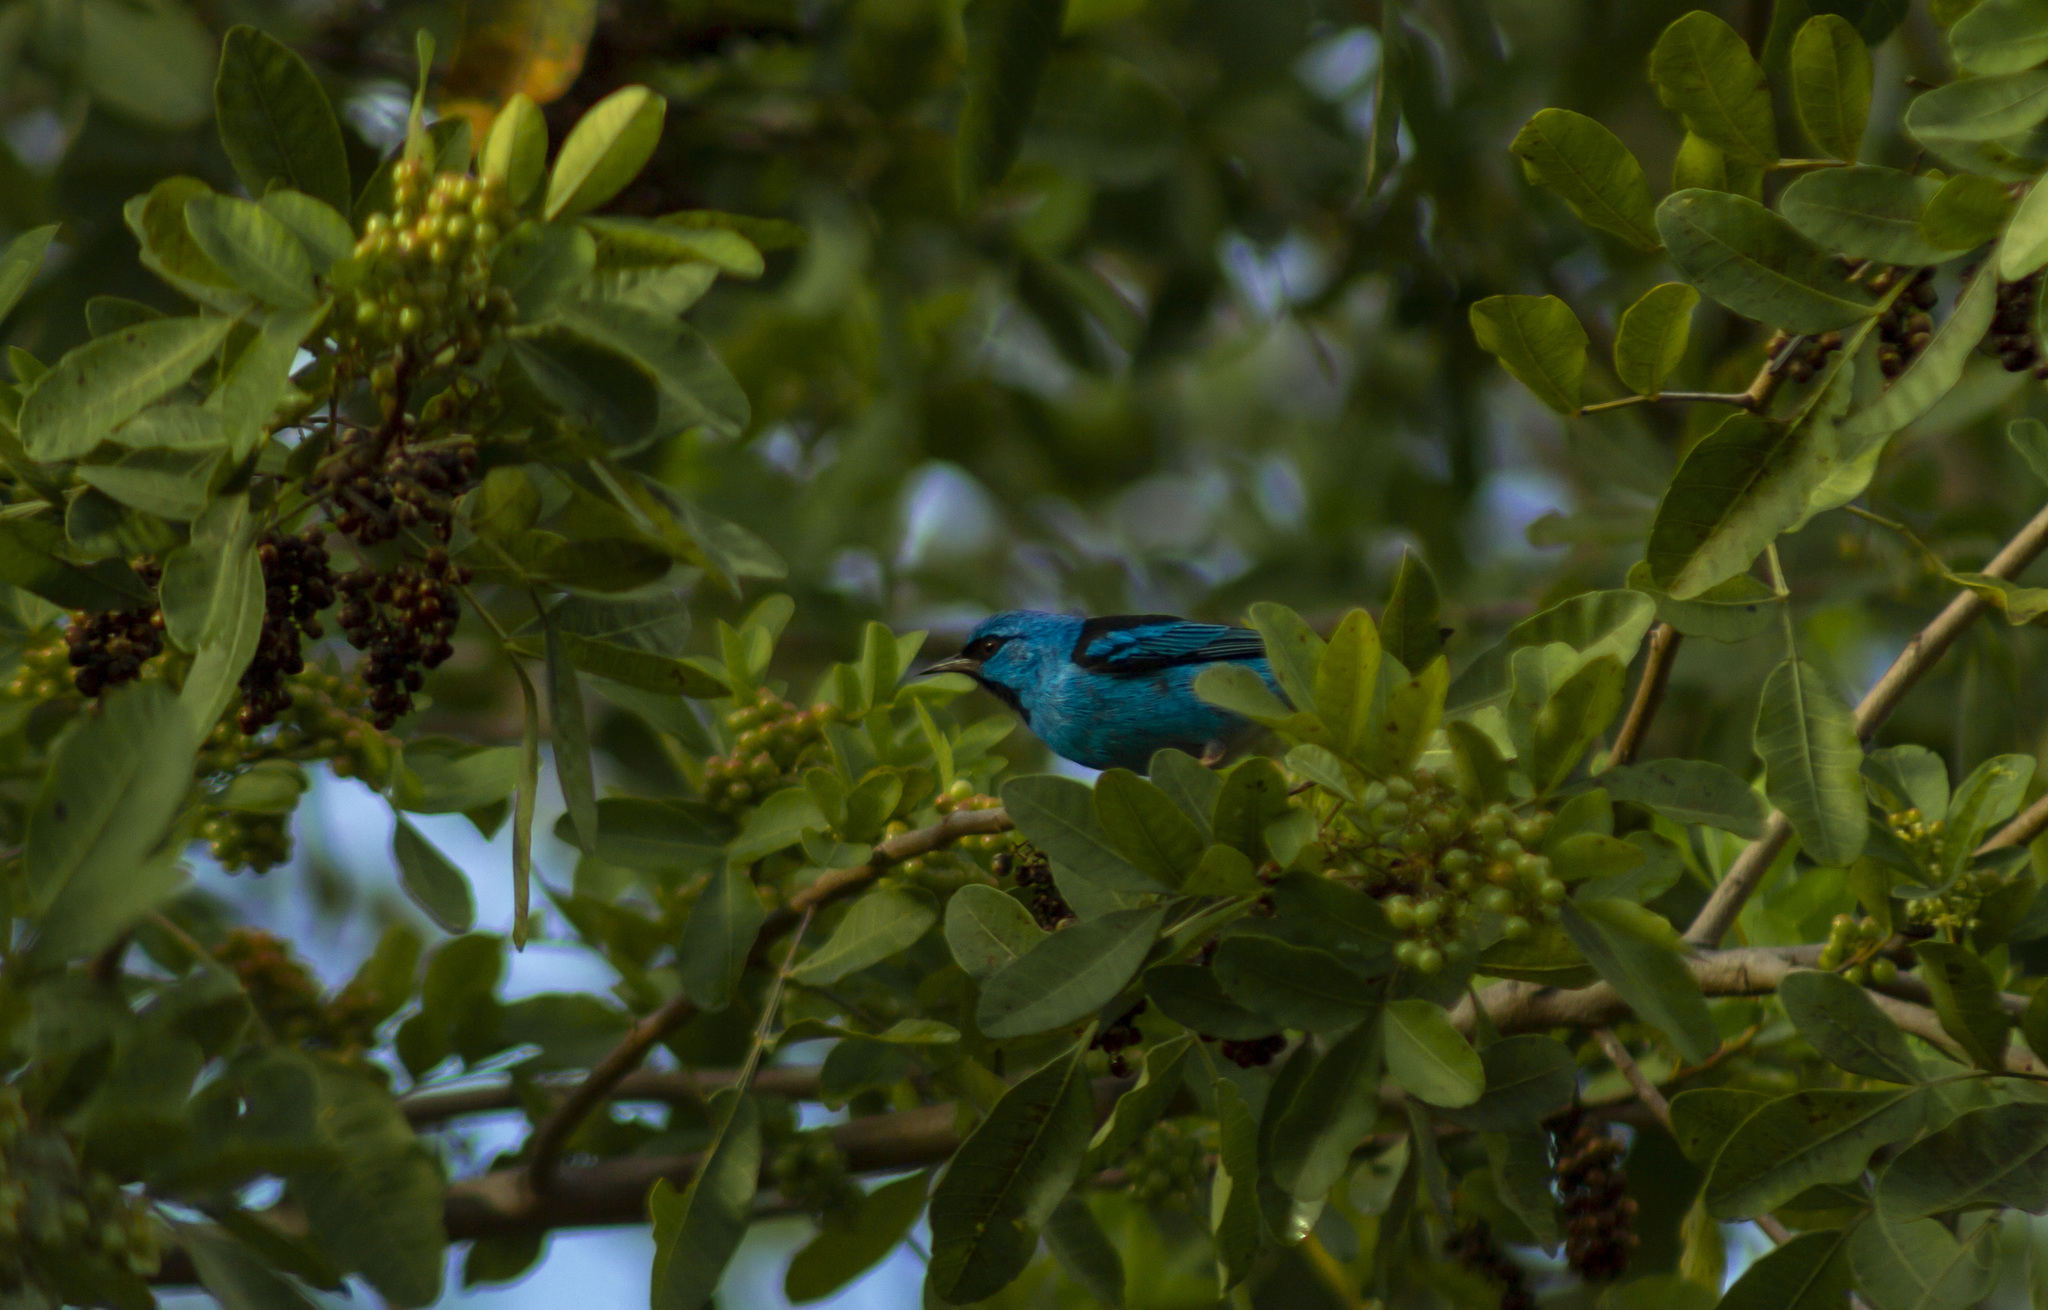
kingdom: Animalia
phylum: Chordata
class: Aves
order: Passeriformes
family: Thraupidae
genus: Dacnis
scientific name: Dacnis cayana
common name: Blue dacnis
